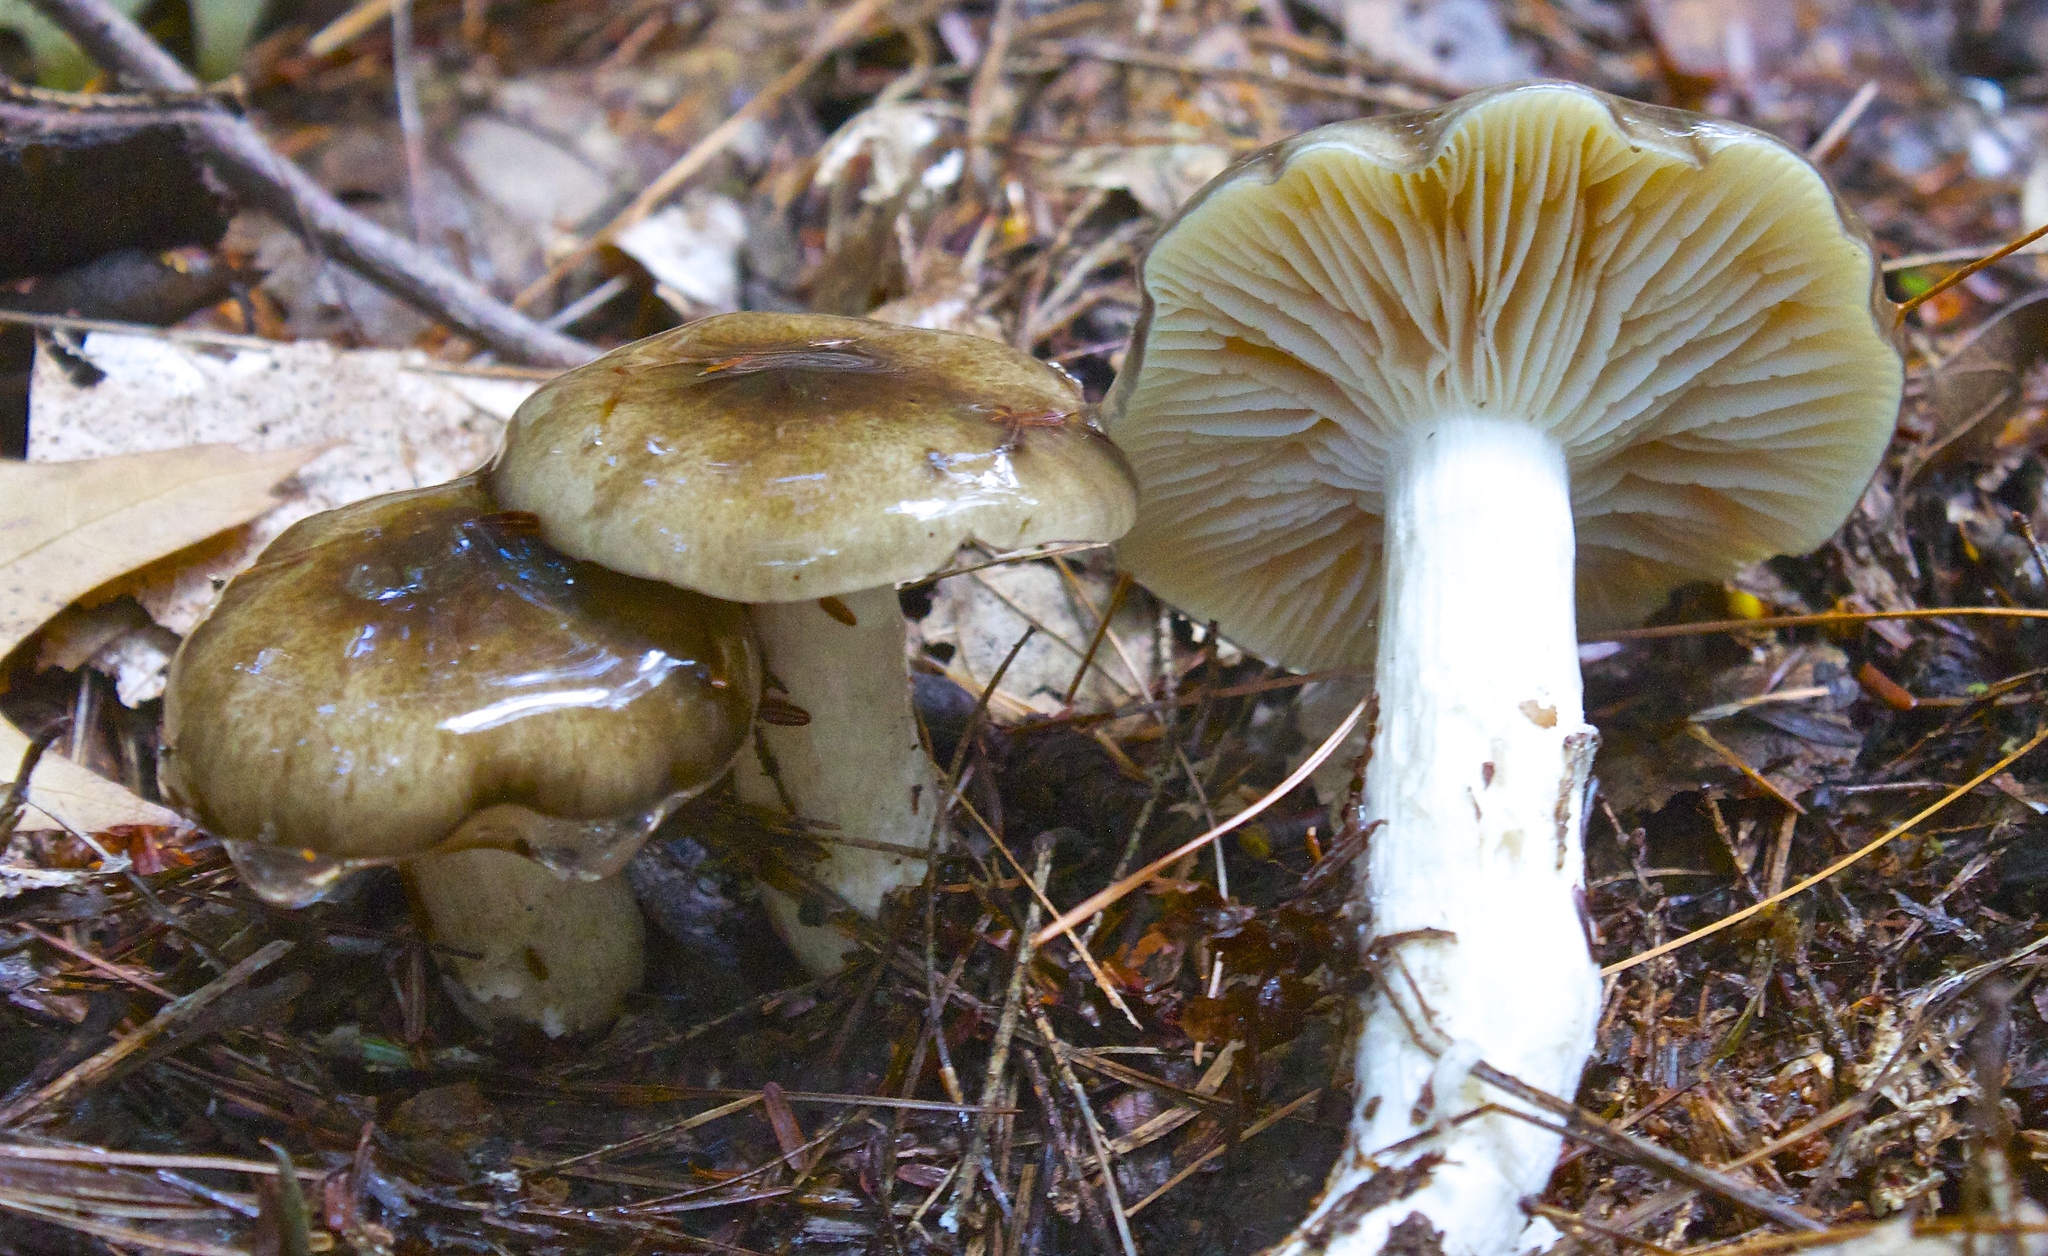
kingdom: Fungi
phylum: Basidiomycota
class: Agaricomycetes
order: Agaricales
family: Hygrophoraceae
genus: Hygrophorus
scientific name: Hygrophorus fuligineus
